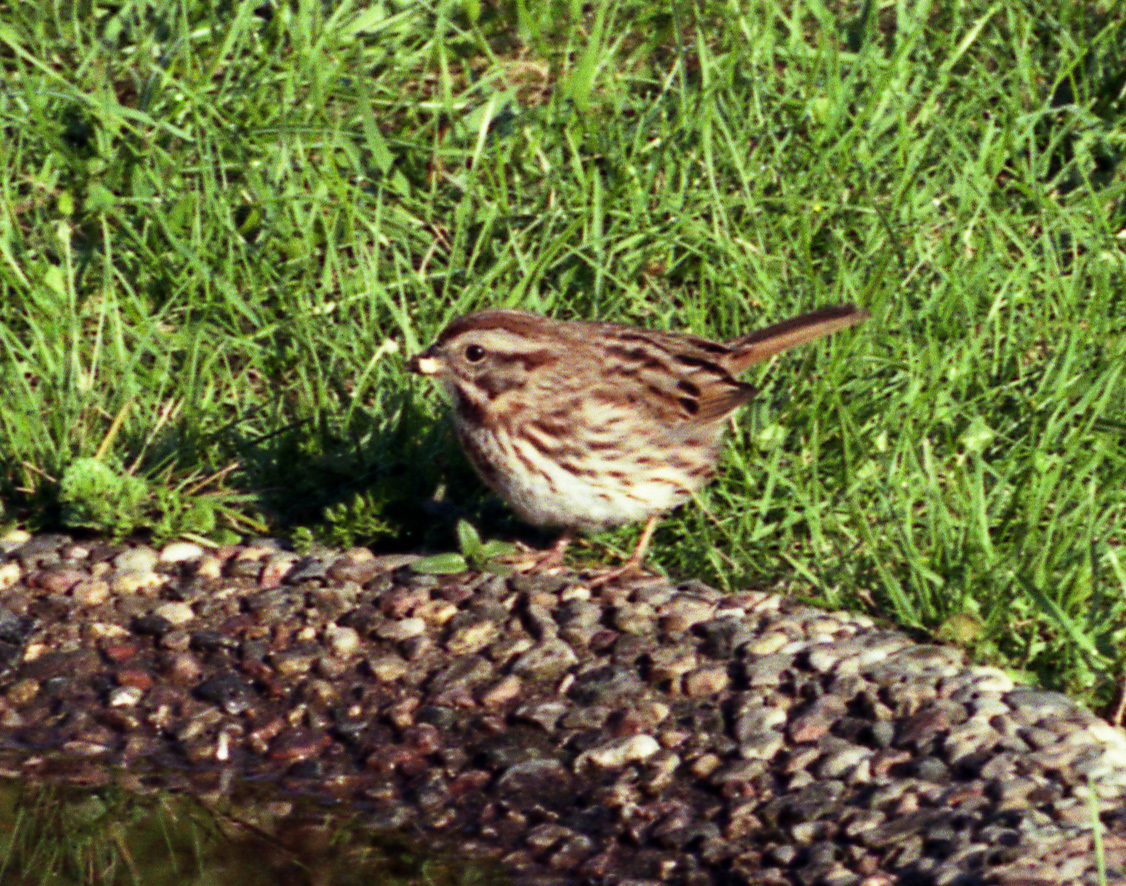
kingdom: Animalia
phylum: Chordata
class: Aves
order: Passeriformes
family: Passerellidae
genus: Melospiza
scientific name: Melospiza melodia
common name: Song sparrow
